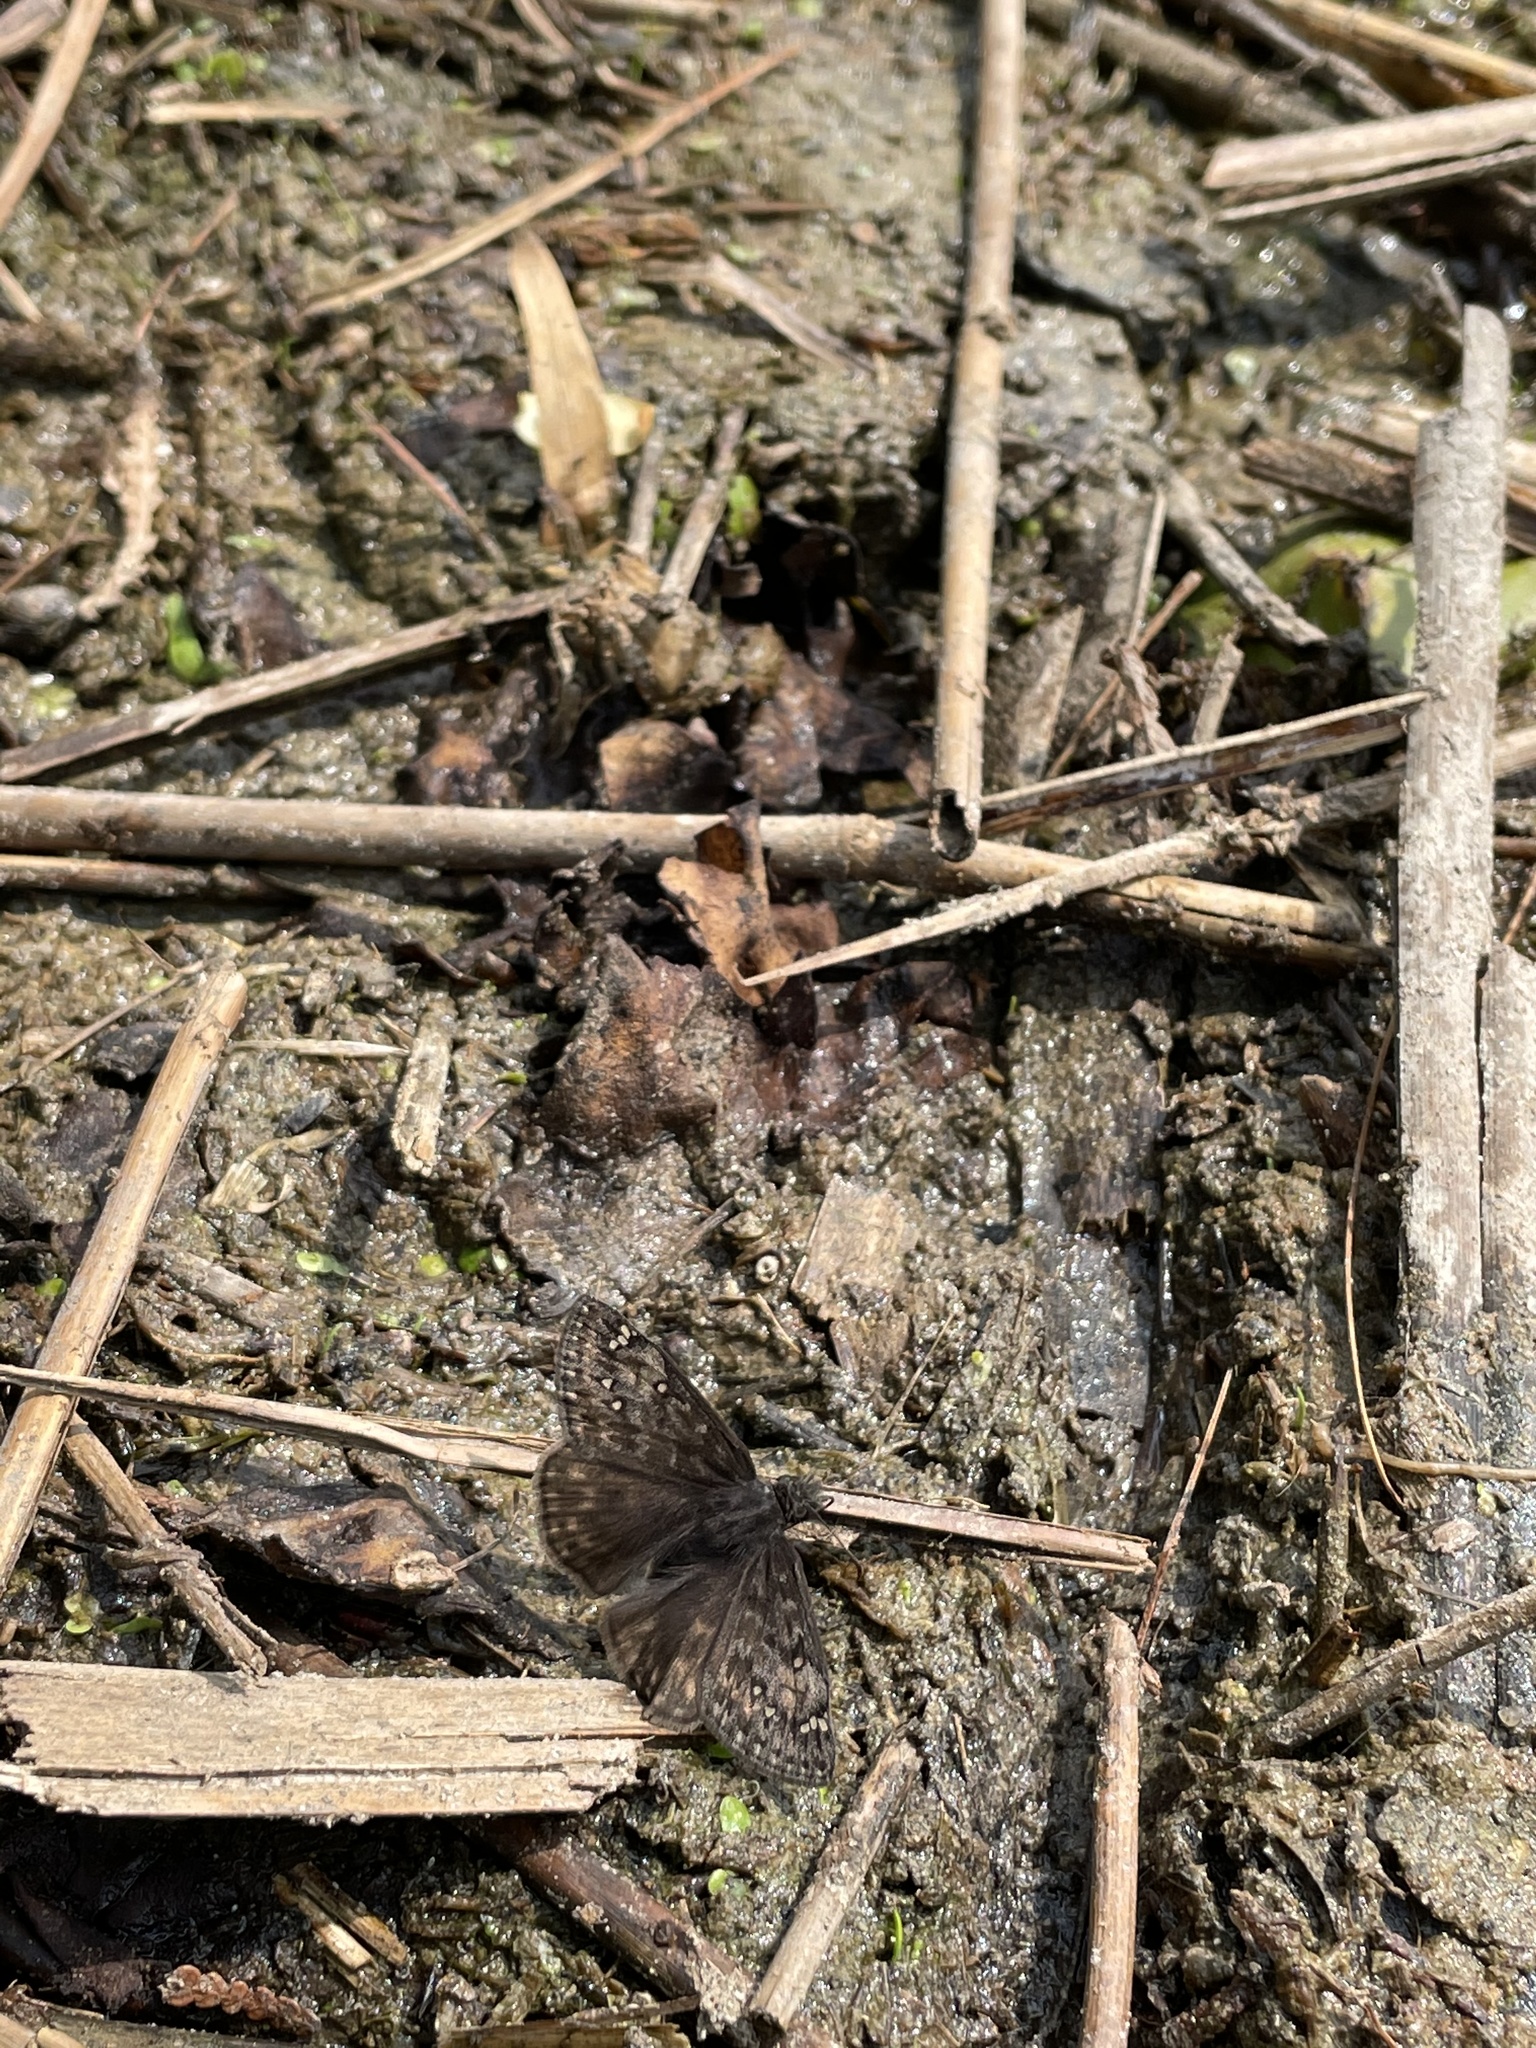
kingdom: Animalia
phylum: Arthropoda
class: Insecta
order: Lepidoptera
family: Hesperiidae
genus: Erynnis
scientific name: Erynnis juvenalis
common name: Juvenal's duskywing
